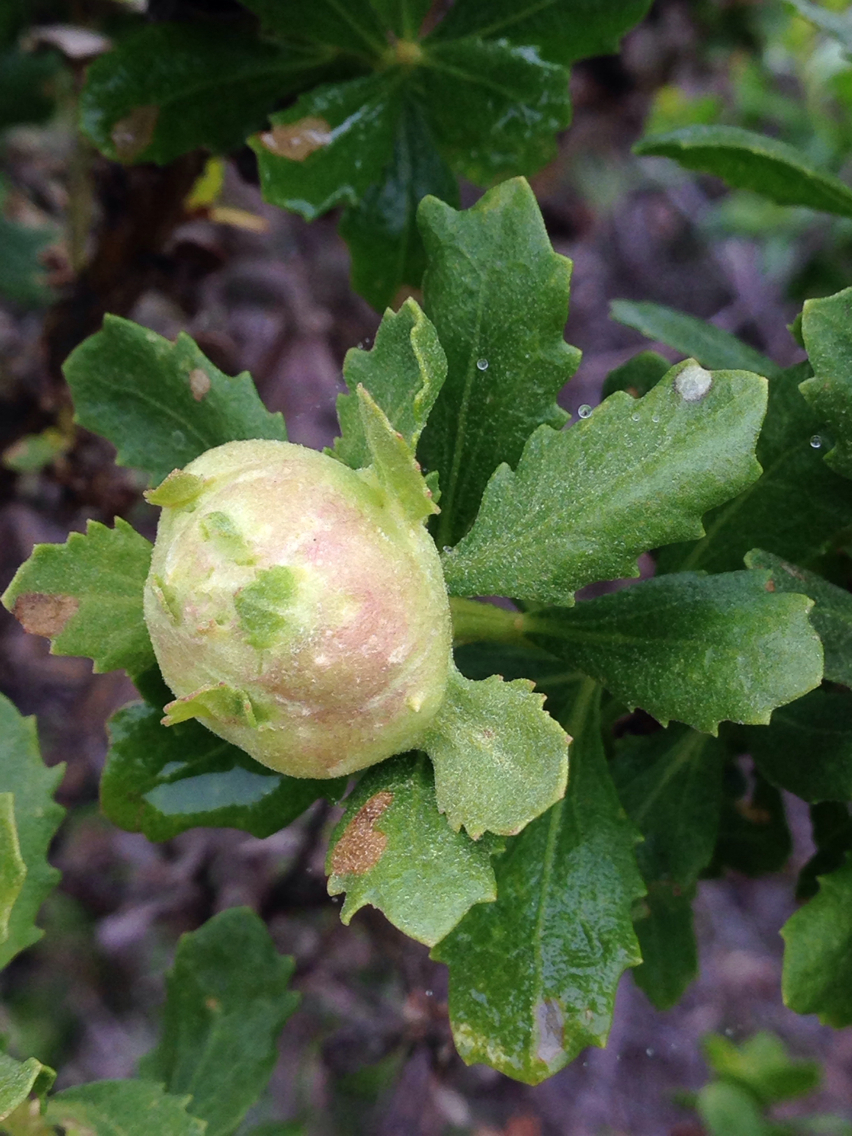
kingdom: Animalia
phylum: Arthropoda
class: Insecta
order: Diptera
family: Cecidomyiidae
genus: Rhopalomyia
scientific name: Rhopalomyia californica
